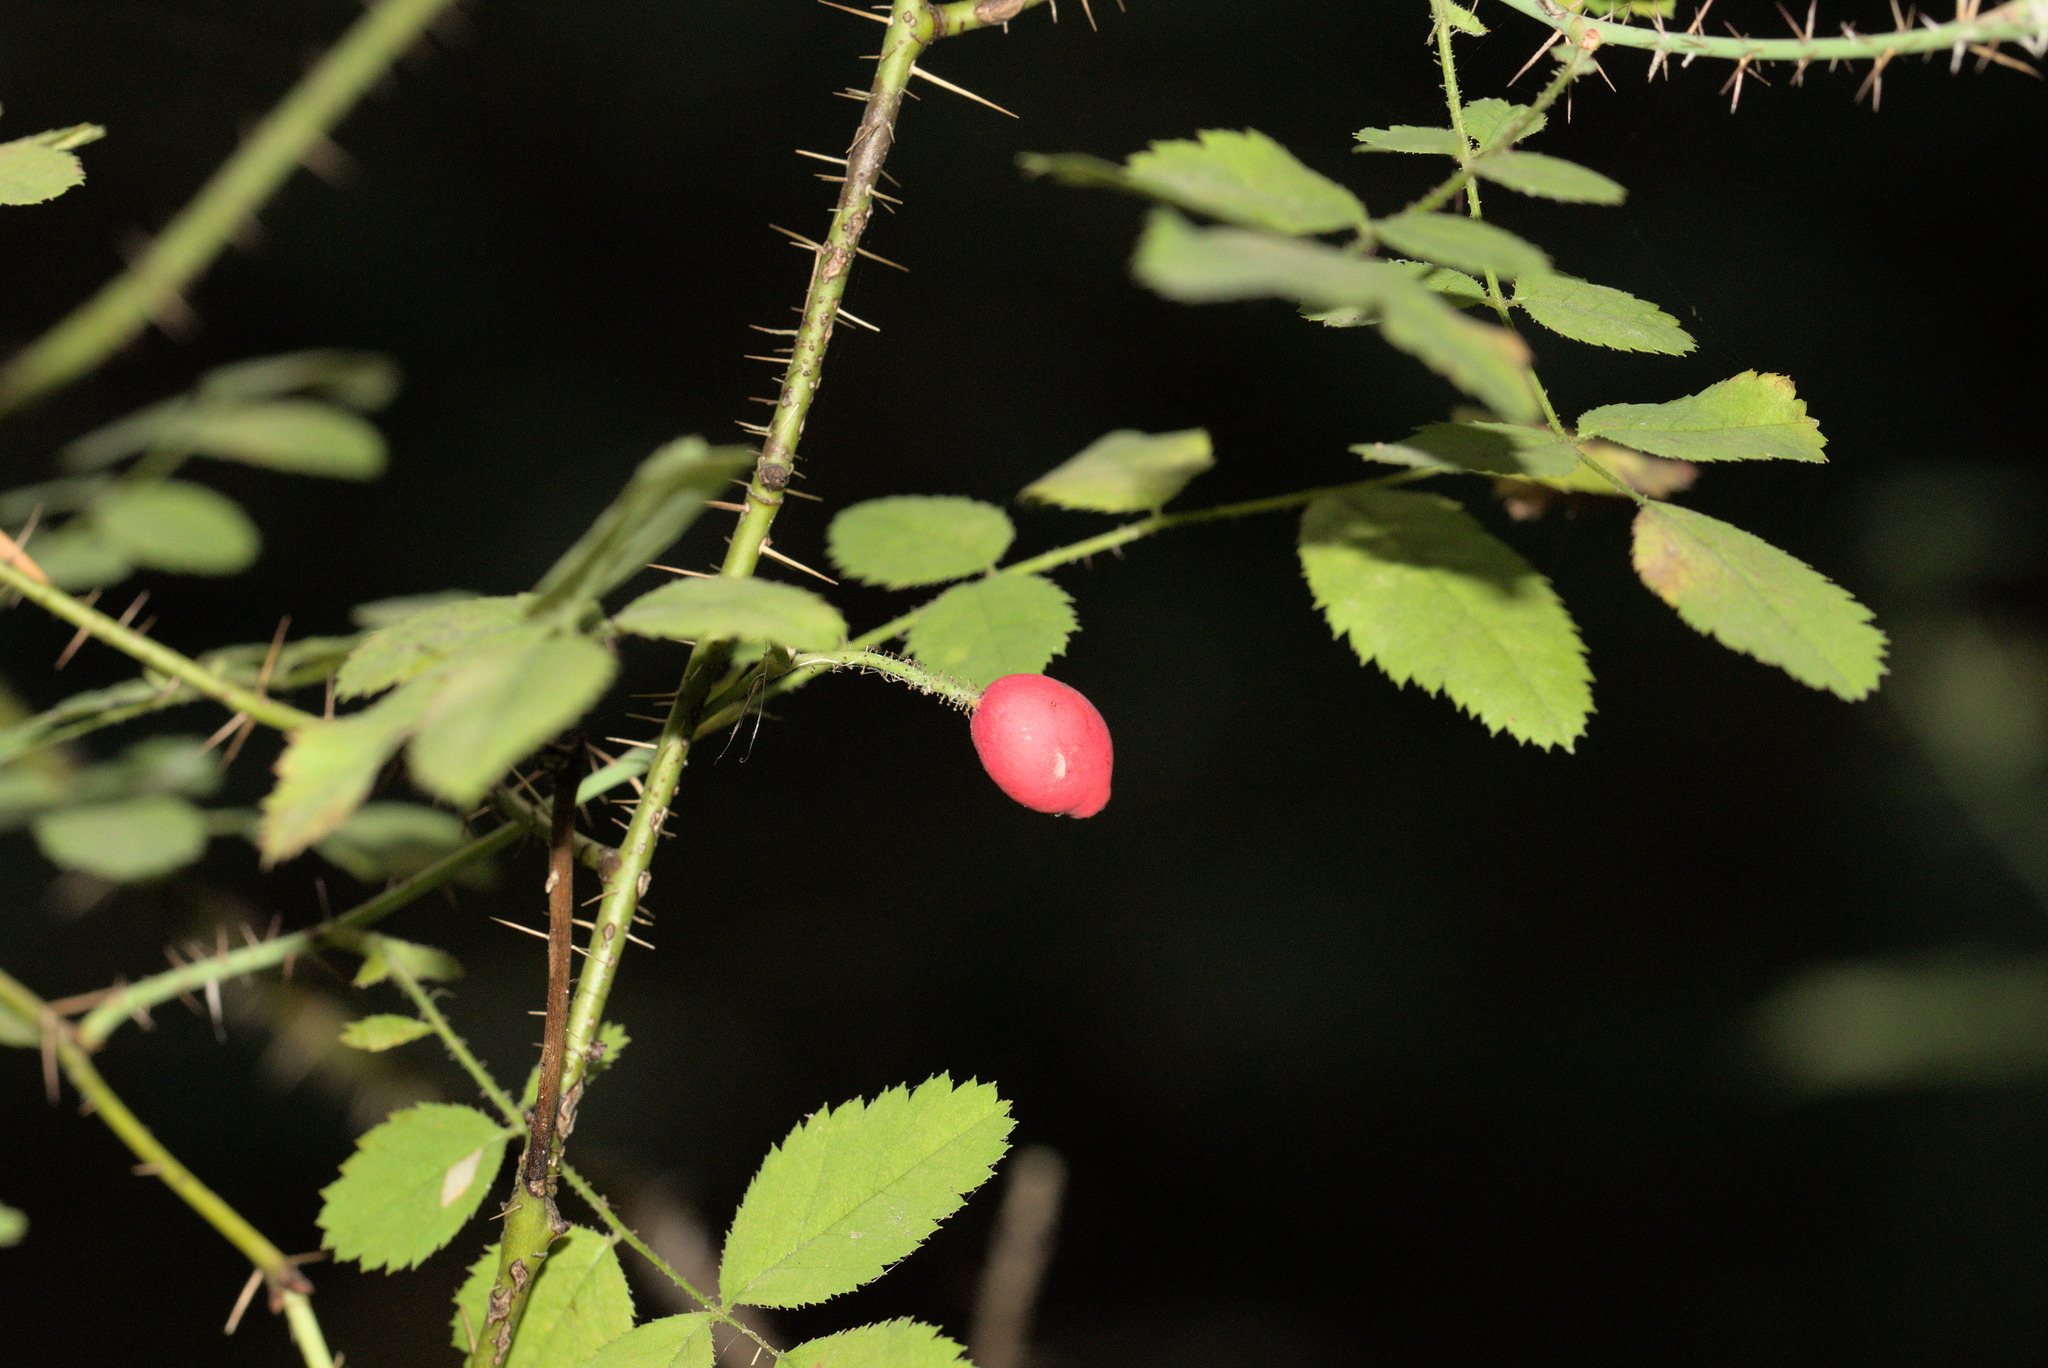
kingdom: Plantae
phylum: Tracheophyta
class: Magnoliopsida
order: Rosales
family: Rosaceae
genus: Rosa
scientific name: Rosa gymnocarpa
